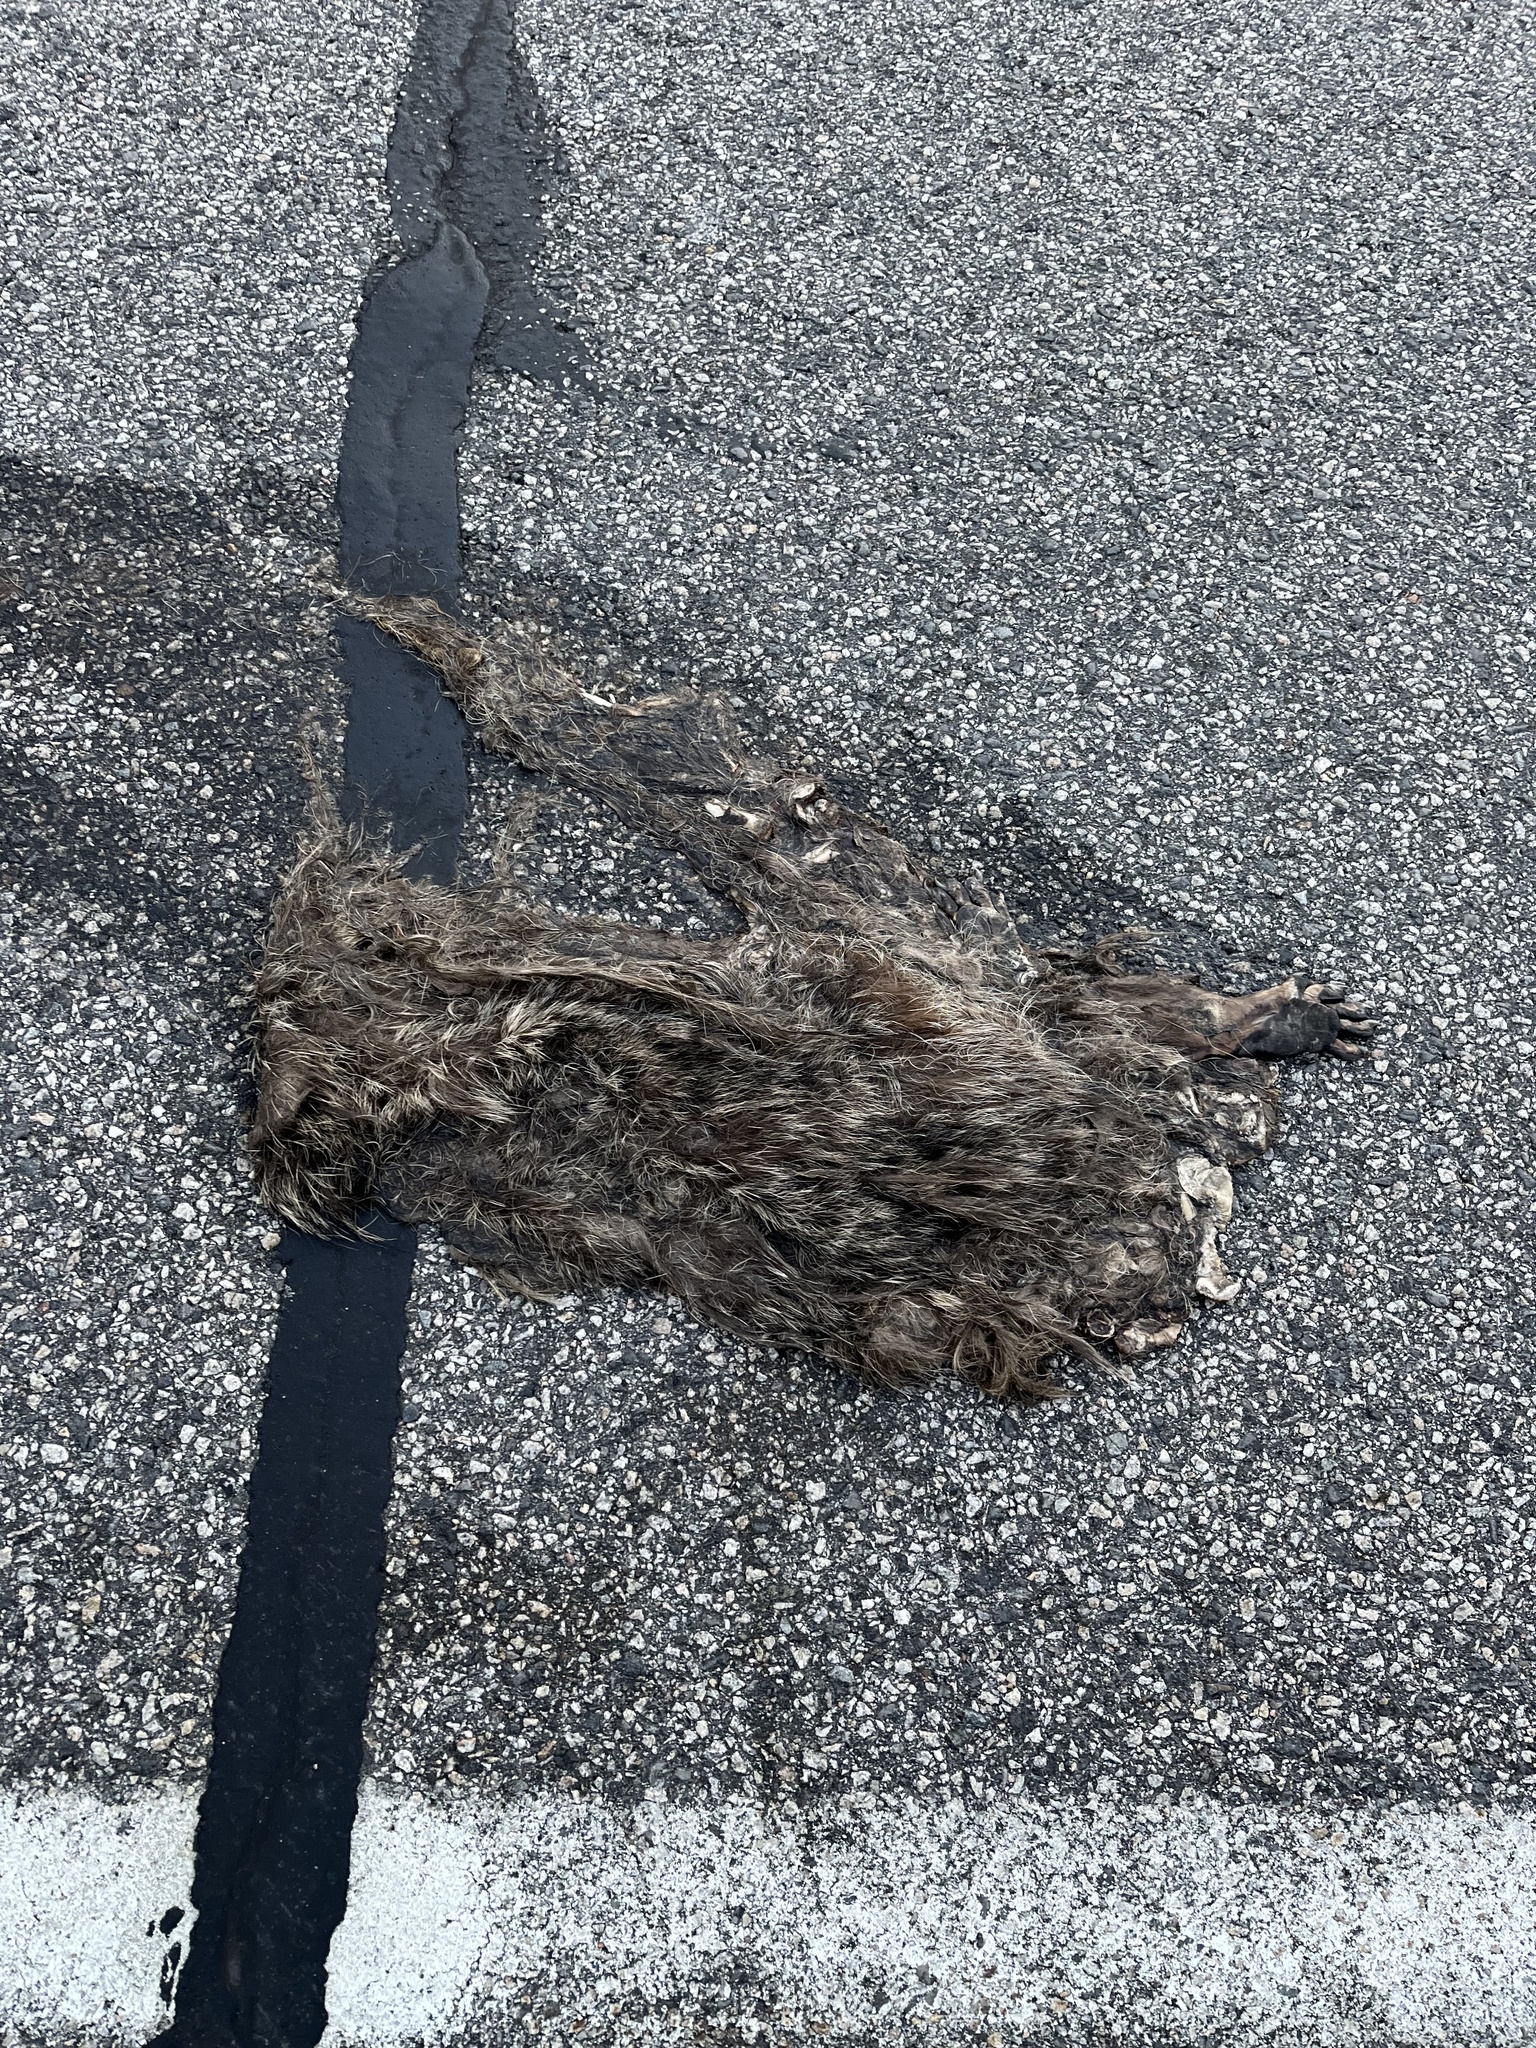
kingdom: Animalia
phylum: Chordata
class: Mammalia
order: Carnivora
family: Procyonidae
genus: Procyon
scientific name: Procyon lotor
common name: Raccoon
